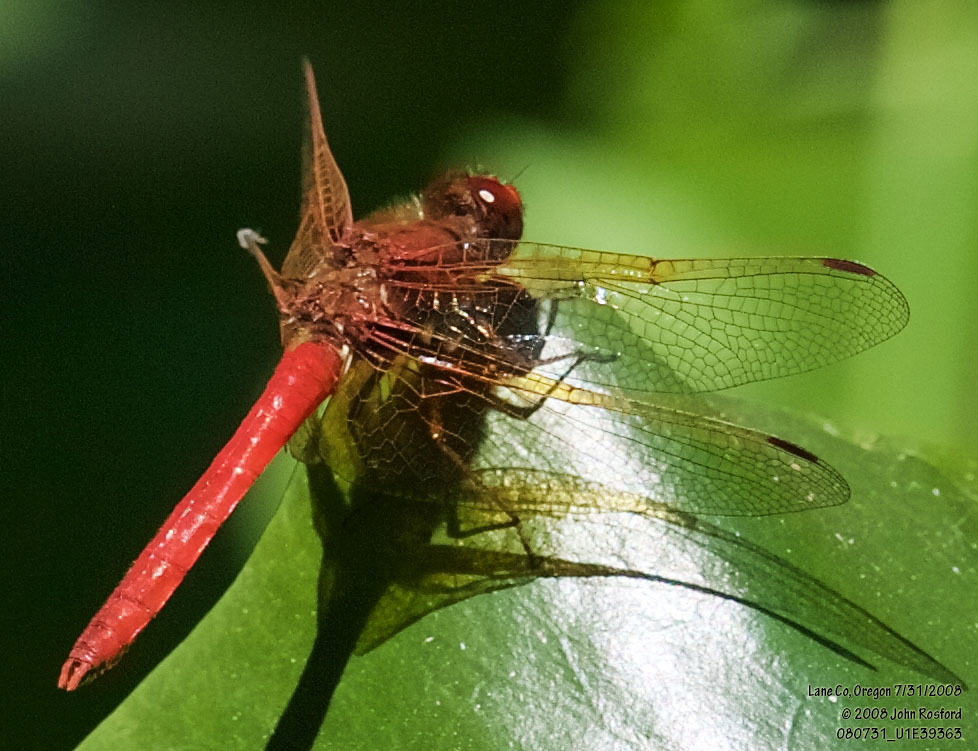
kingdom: Animalia
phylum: Arthropoda
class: Insecta
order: Odonata
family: Libellulidae
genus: Sympetrum
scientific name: Sympetrum illotum
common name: Cardinal meadowhawk
